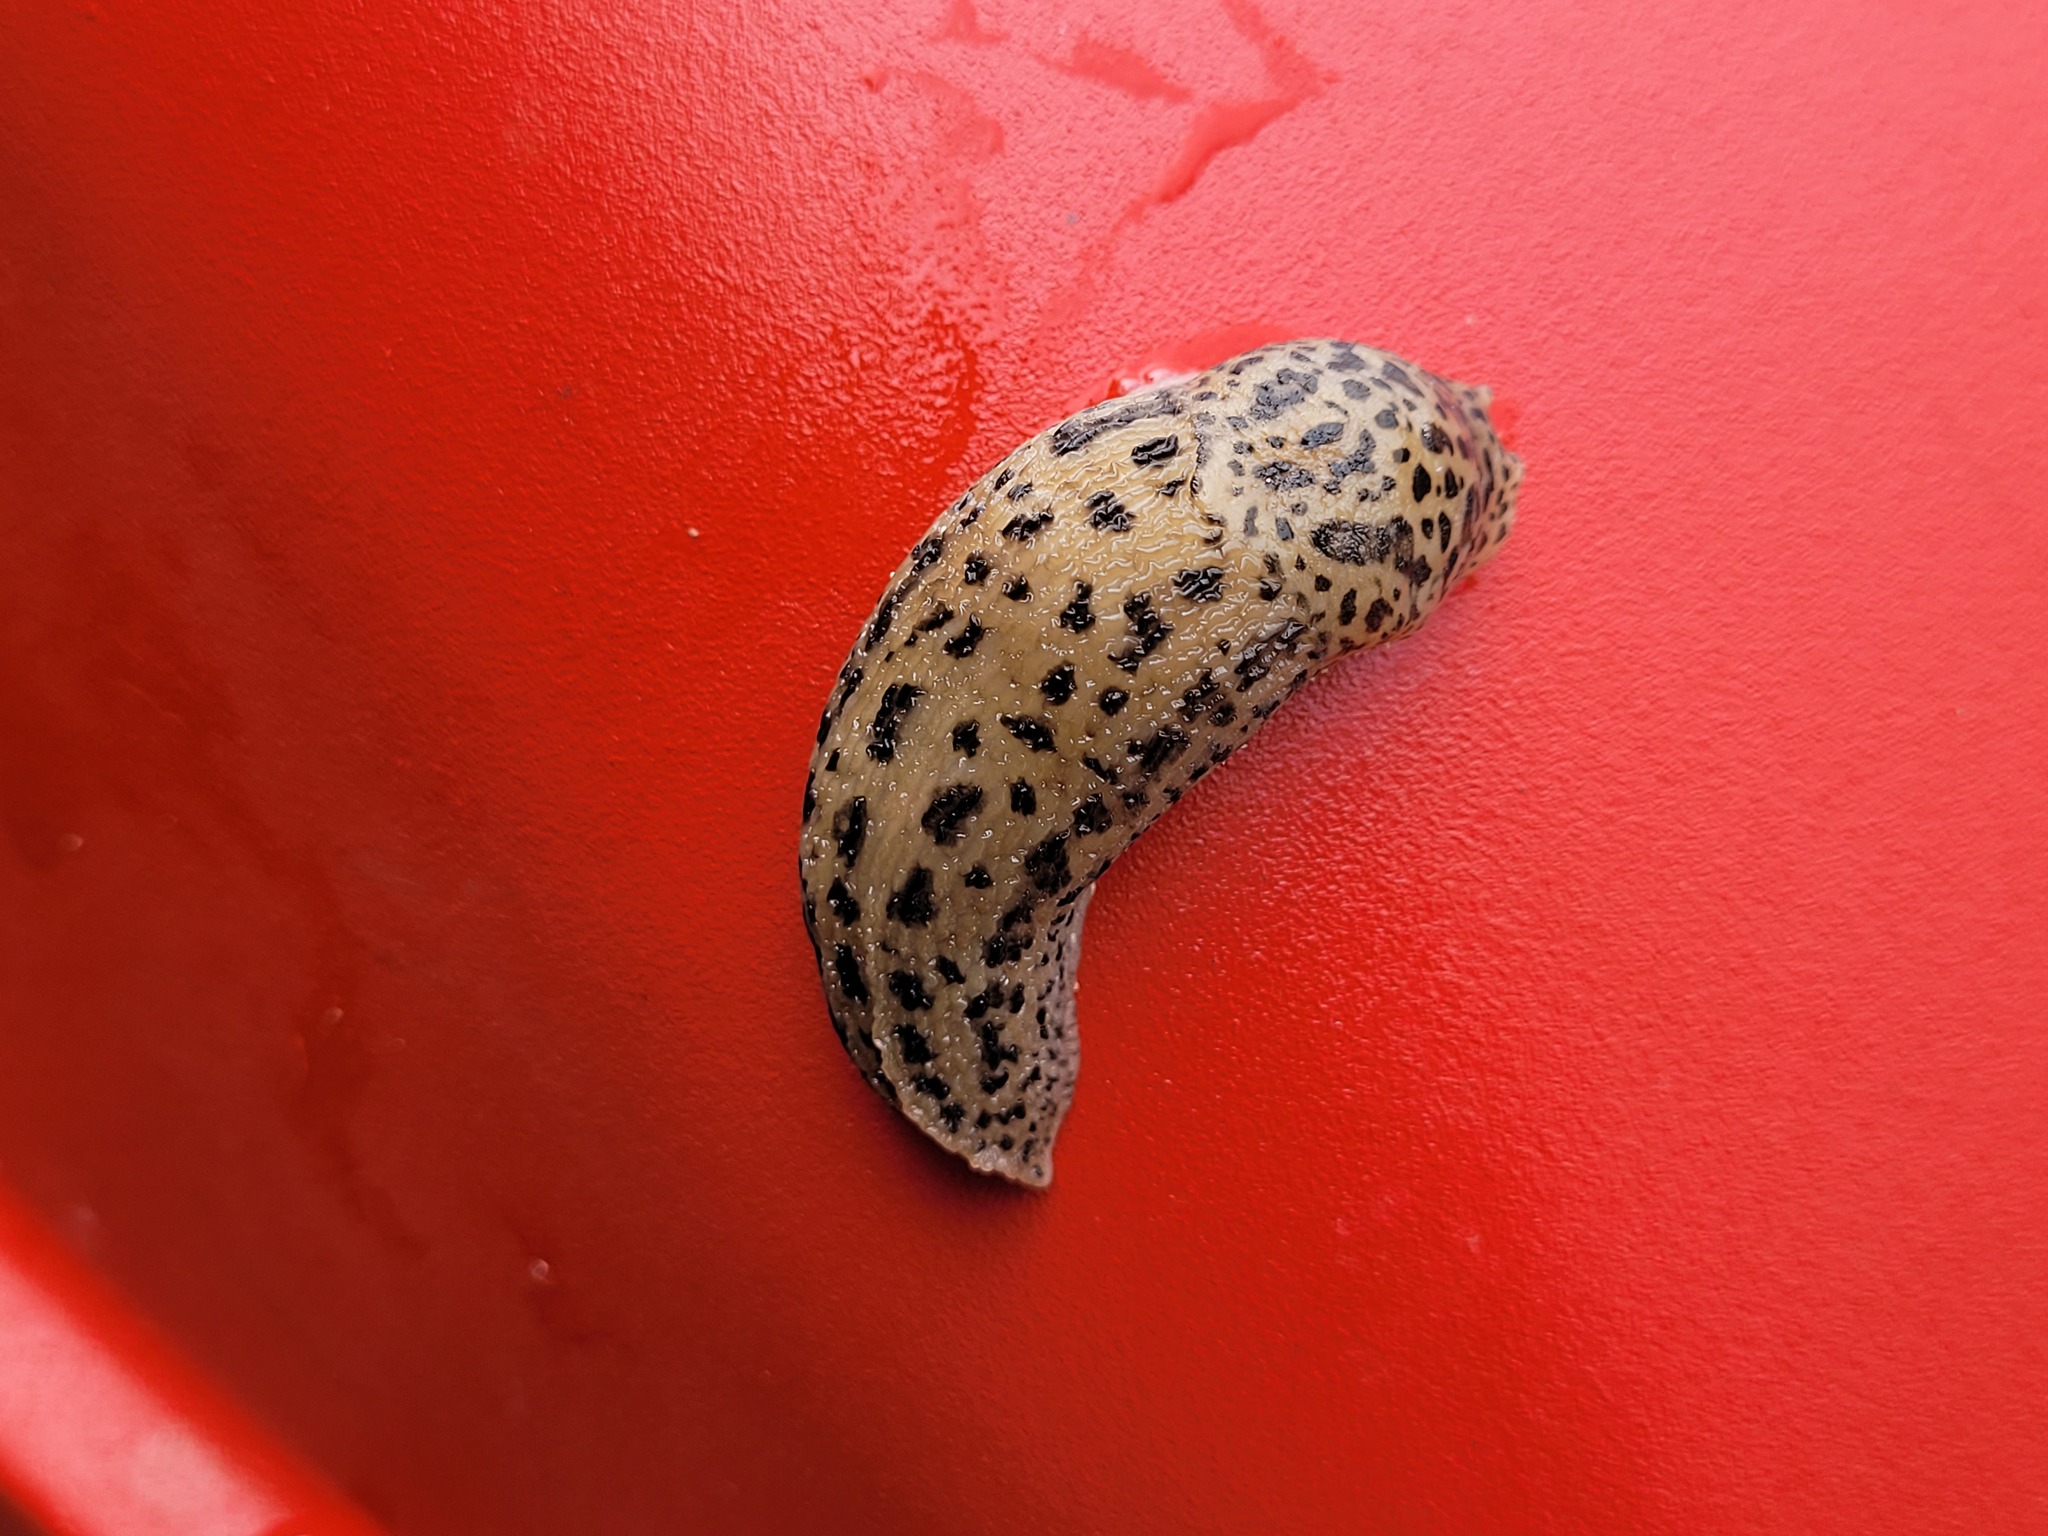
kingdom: Animalia
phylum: Mollusca
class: Gastropoda
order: Stylommatophora
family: Limacidae
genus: Limax
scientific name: Limax maximus
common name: Great grey slug
